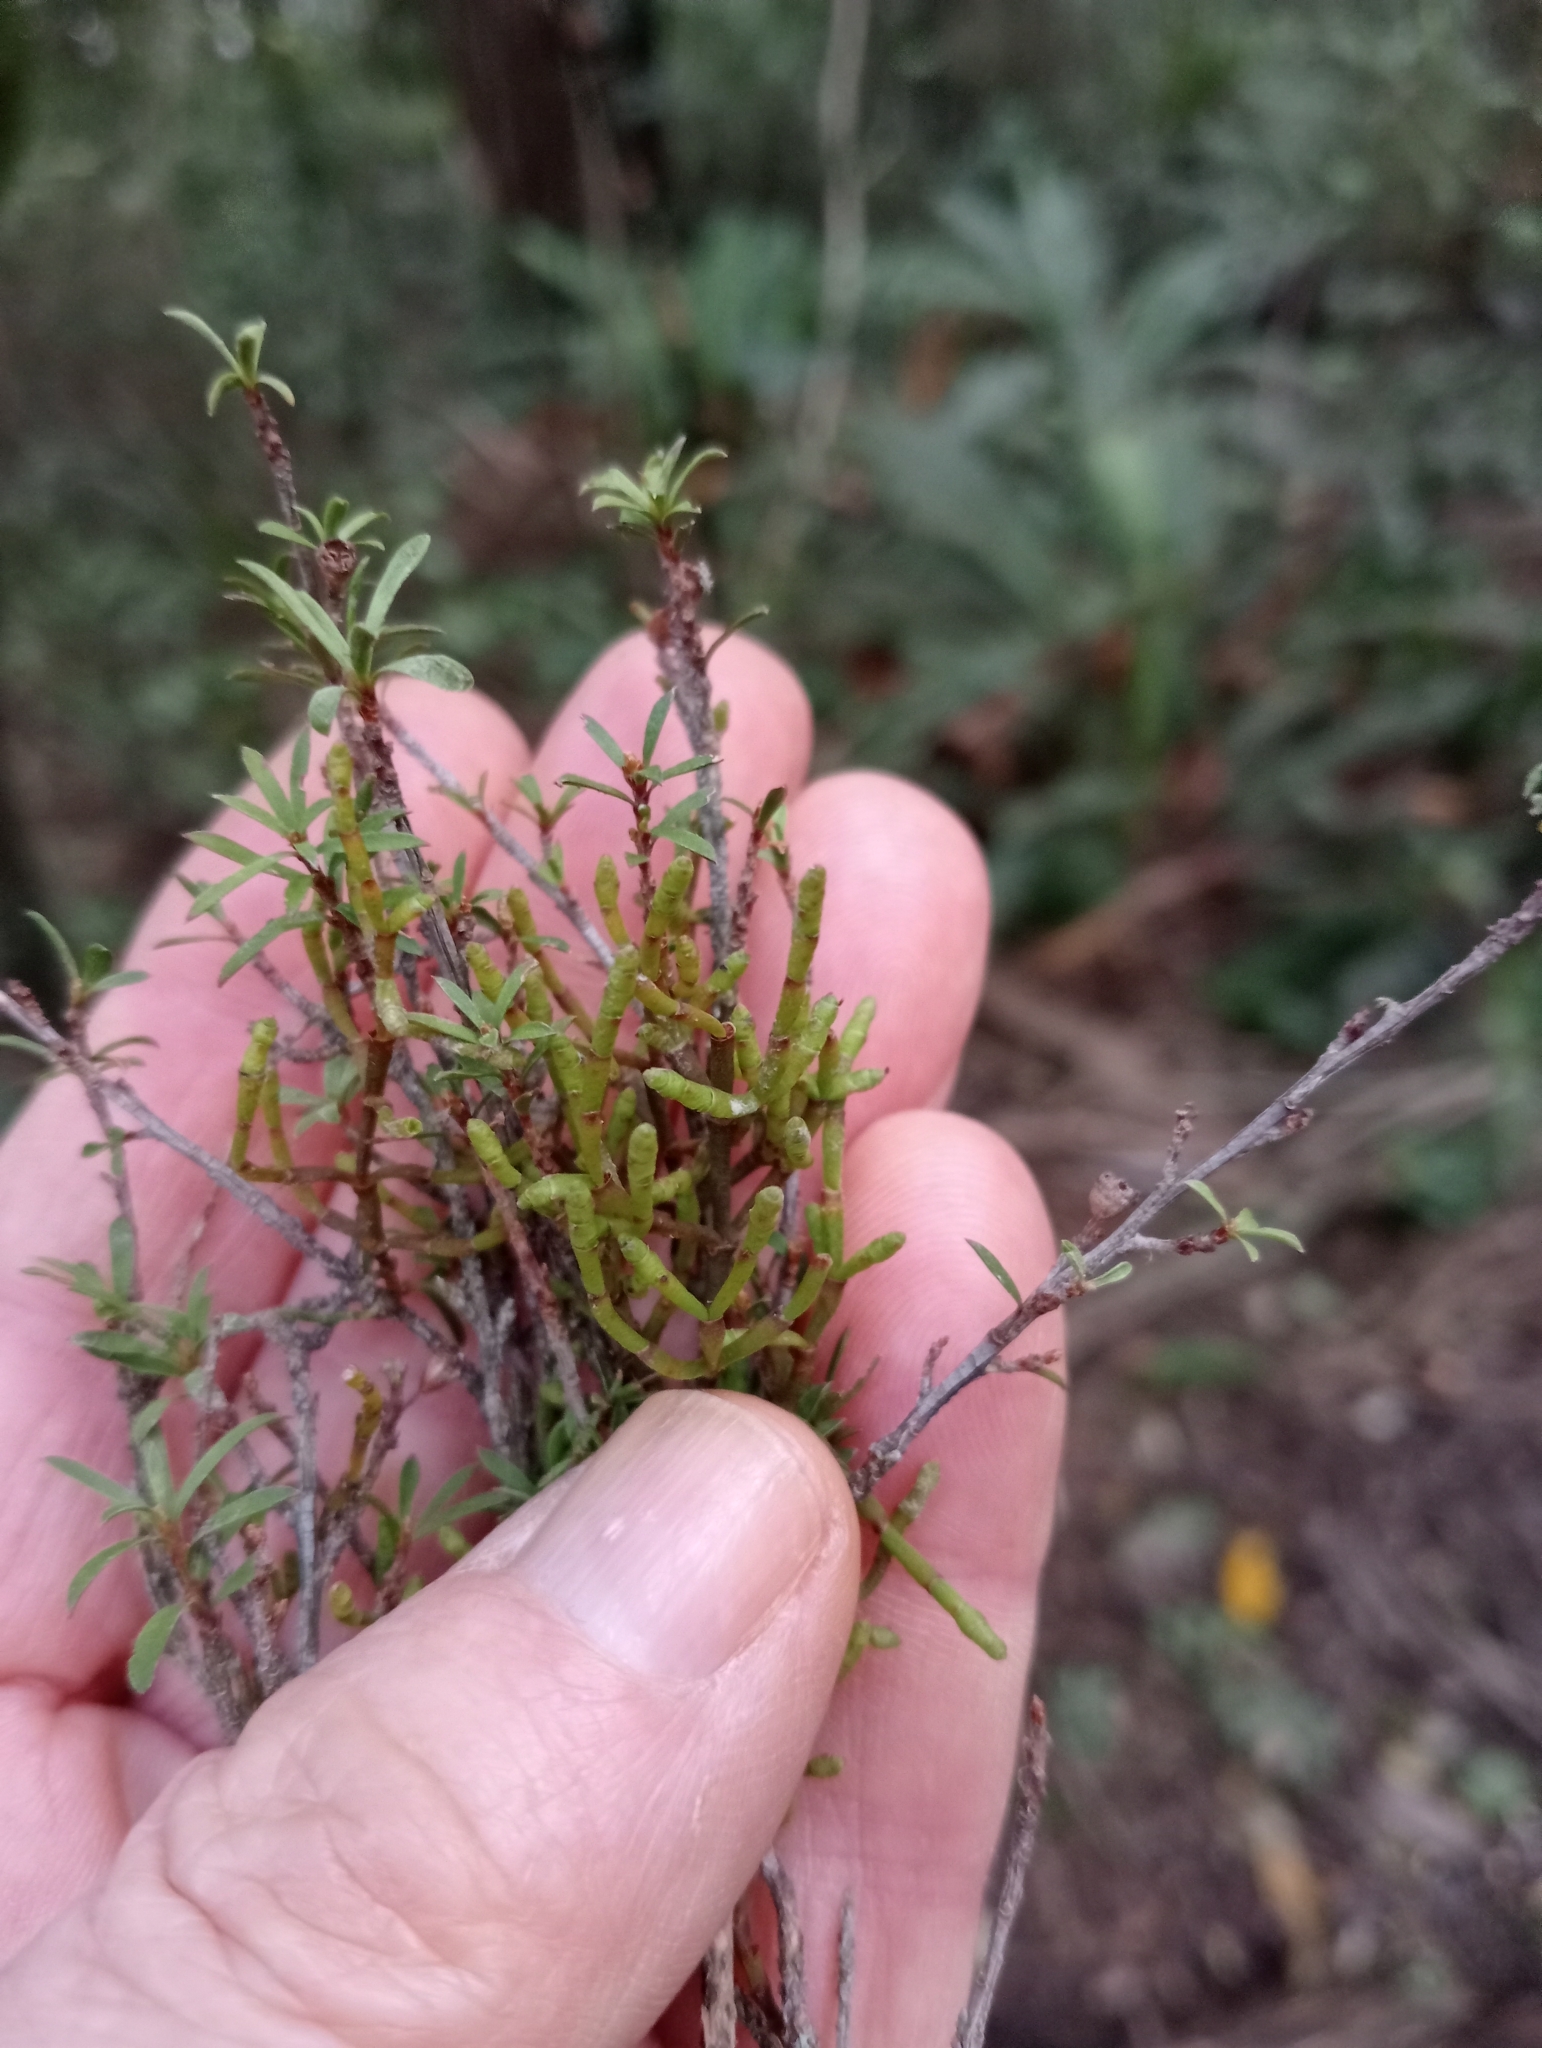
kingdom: Plantae
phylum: Tracheophyta
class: Magnoliopsida
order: Santalales
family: Viscaceae
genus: Korthalsella
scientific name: Korthalsella salicornioides
